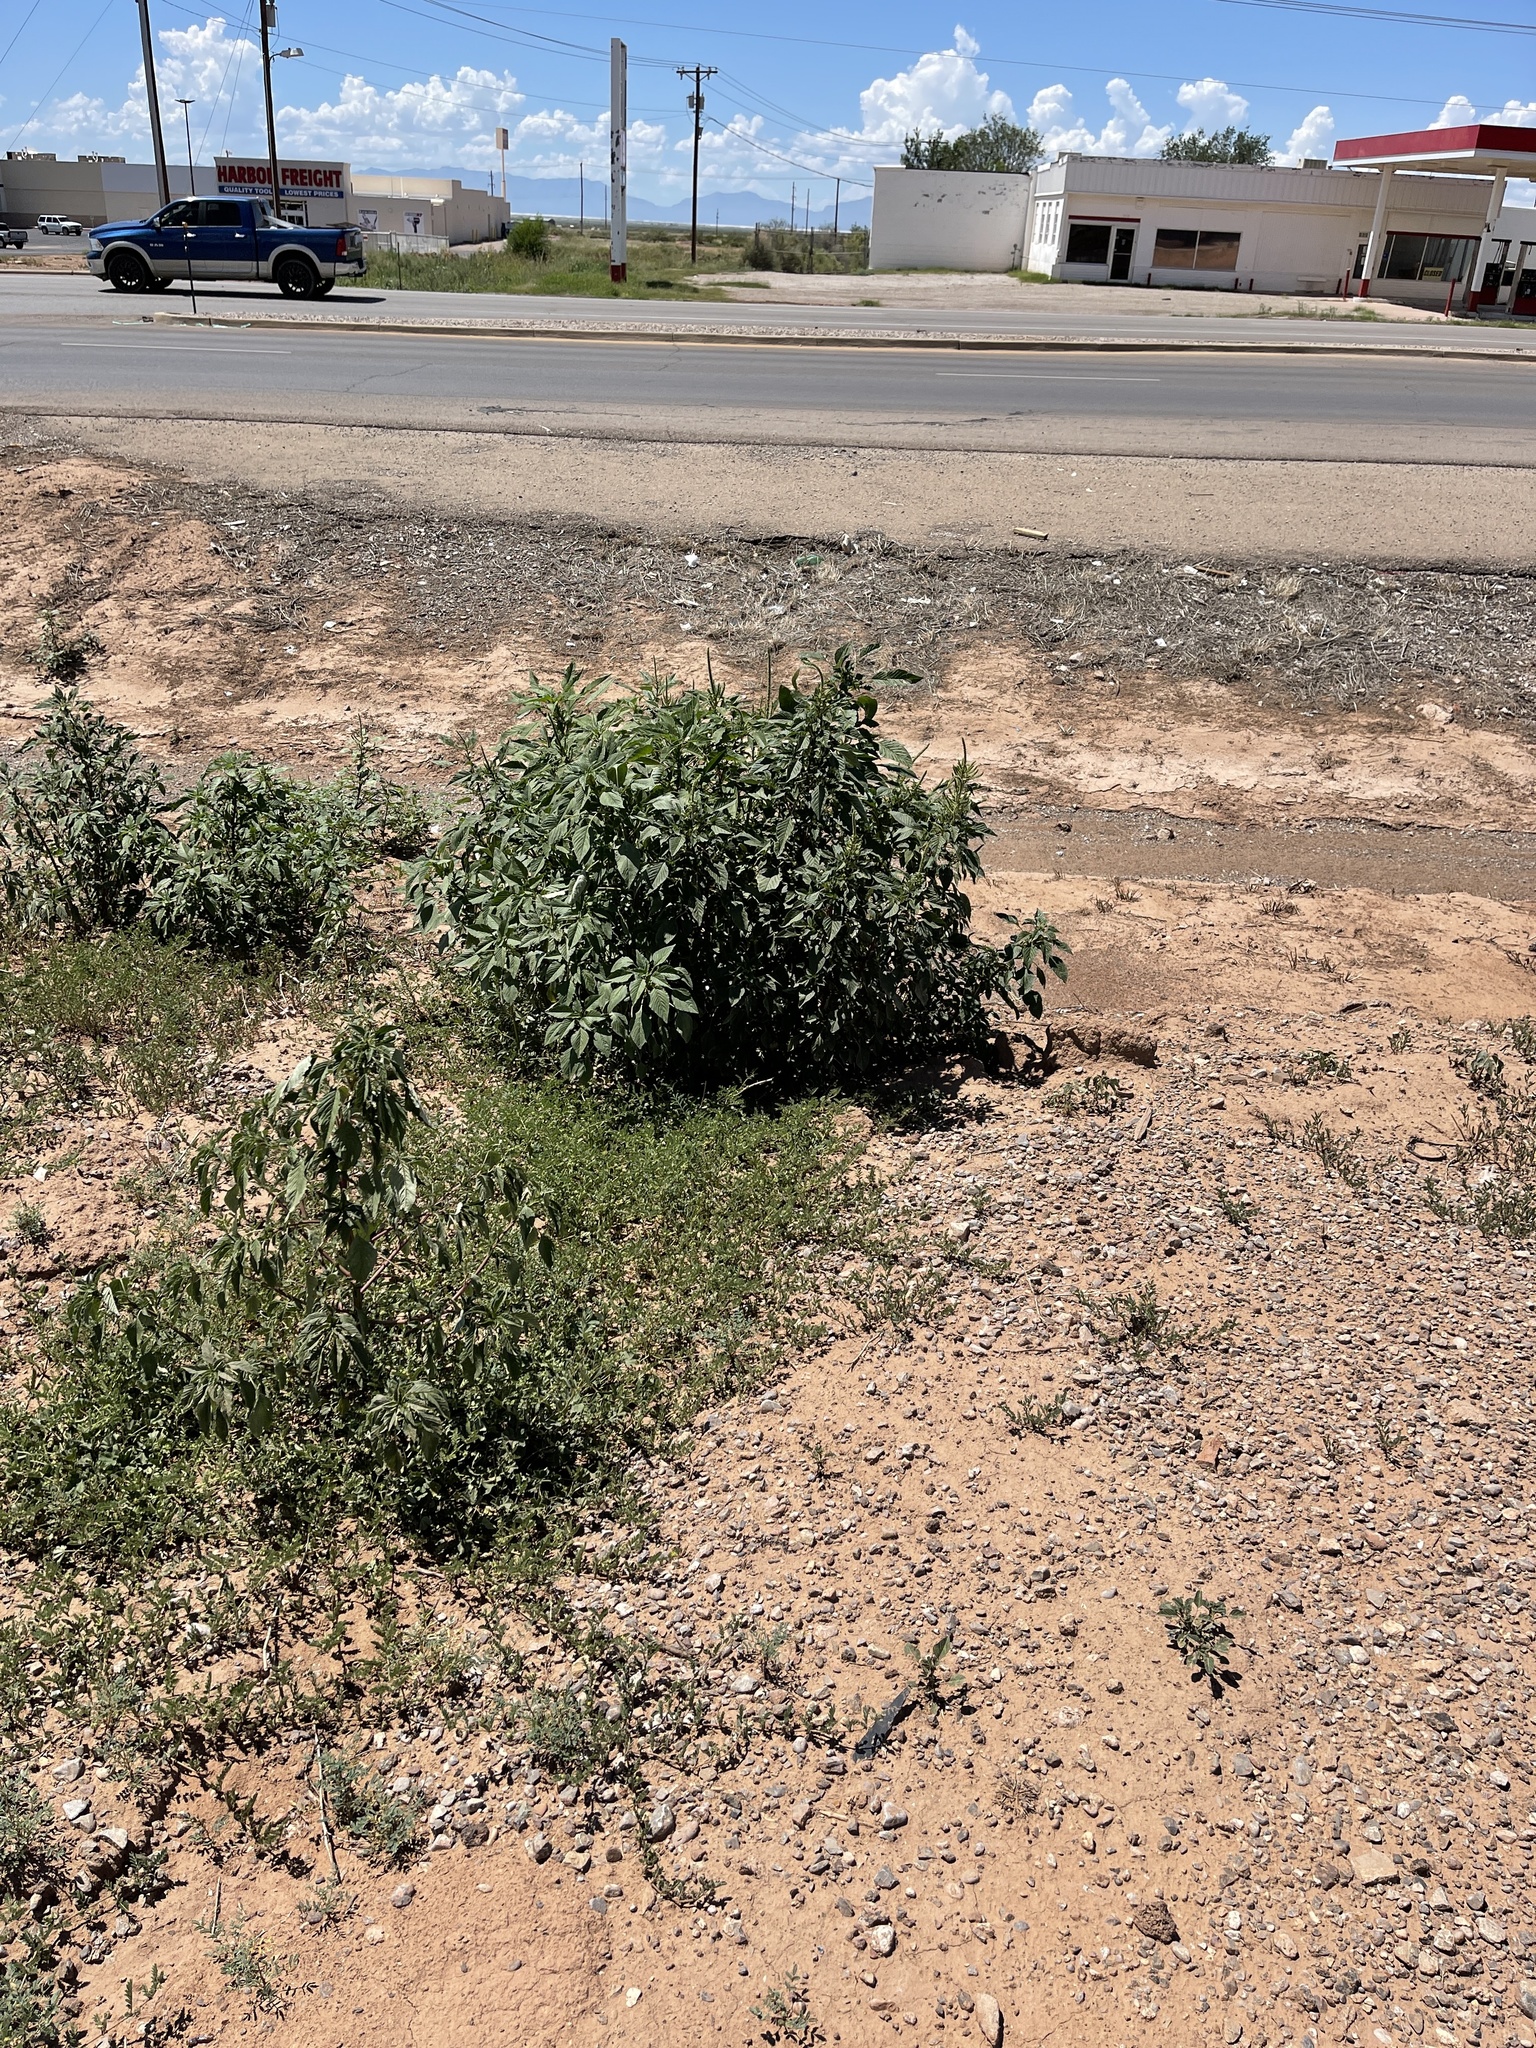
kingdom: Plantae
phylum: Tracheophyta
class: Magnoliopsida
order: Caryophyllales
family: Amaranthaceae
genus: Amaranthus
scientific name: Amaranthus palmeri
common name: Dioecious amaranth
